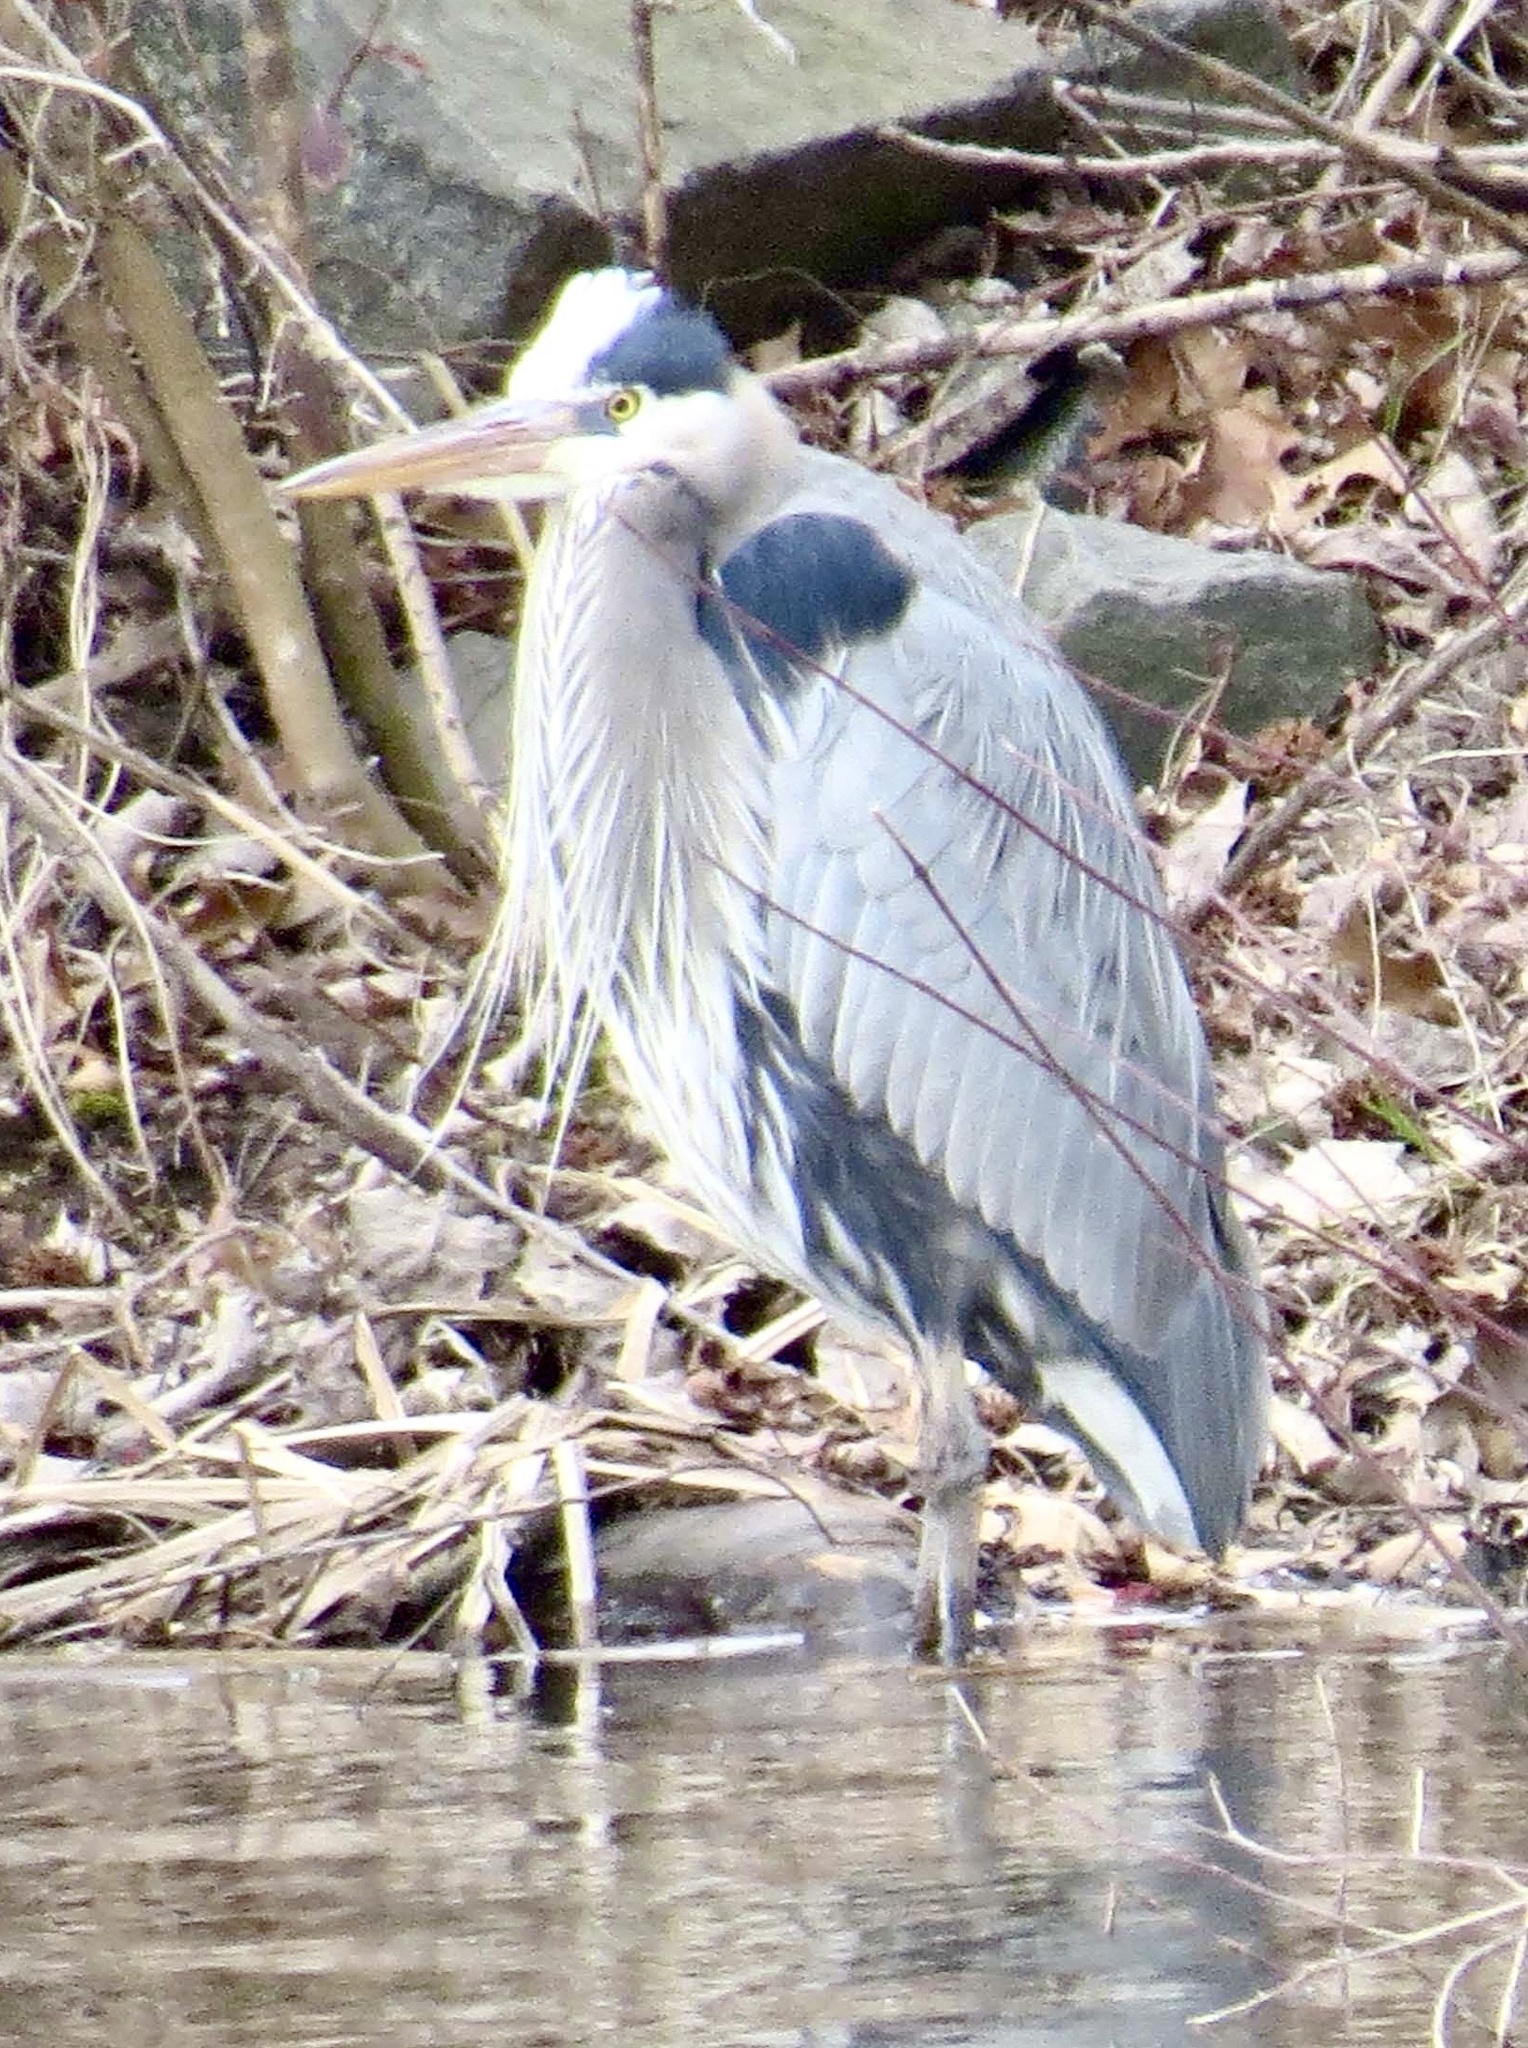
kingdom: Animalia
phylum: Chordata
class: Aves
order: Pelecaniformes
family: Ardeidae
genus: Ardea
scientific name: Ardea herodias
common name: Great blue heron
